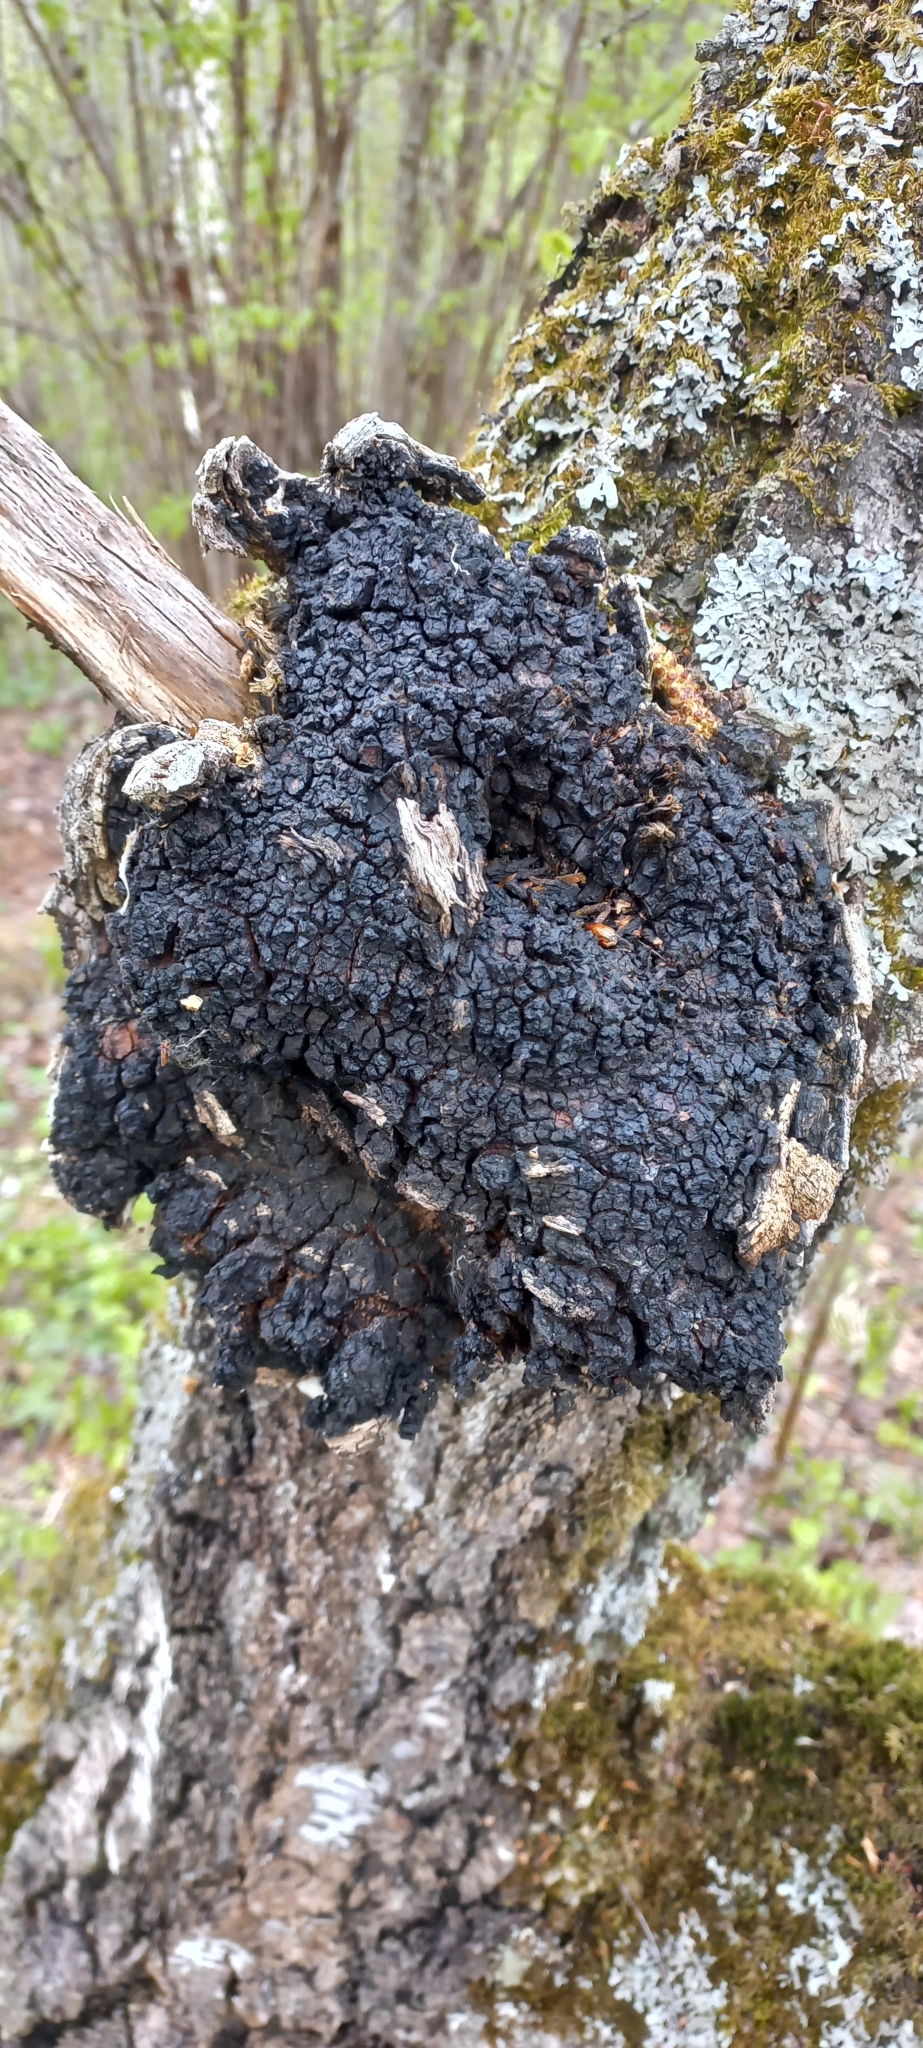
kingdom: Fungi
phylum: Basidiomycota
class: Agaricomycetes
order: Hymenochaetales
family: Hymenochaetaceae
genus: Inonotus
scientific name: Inonotus obliquus
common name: Chaga
